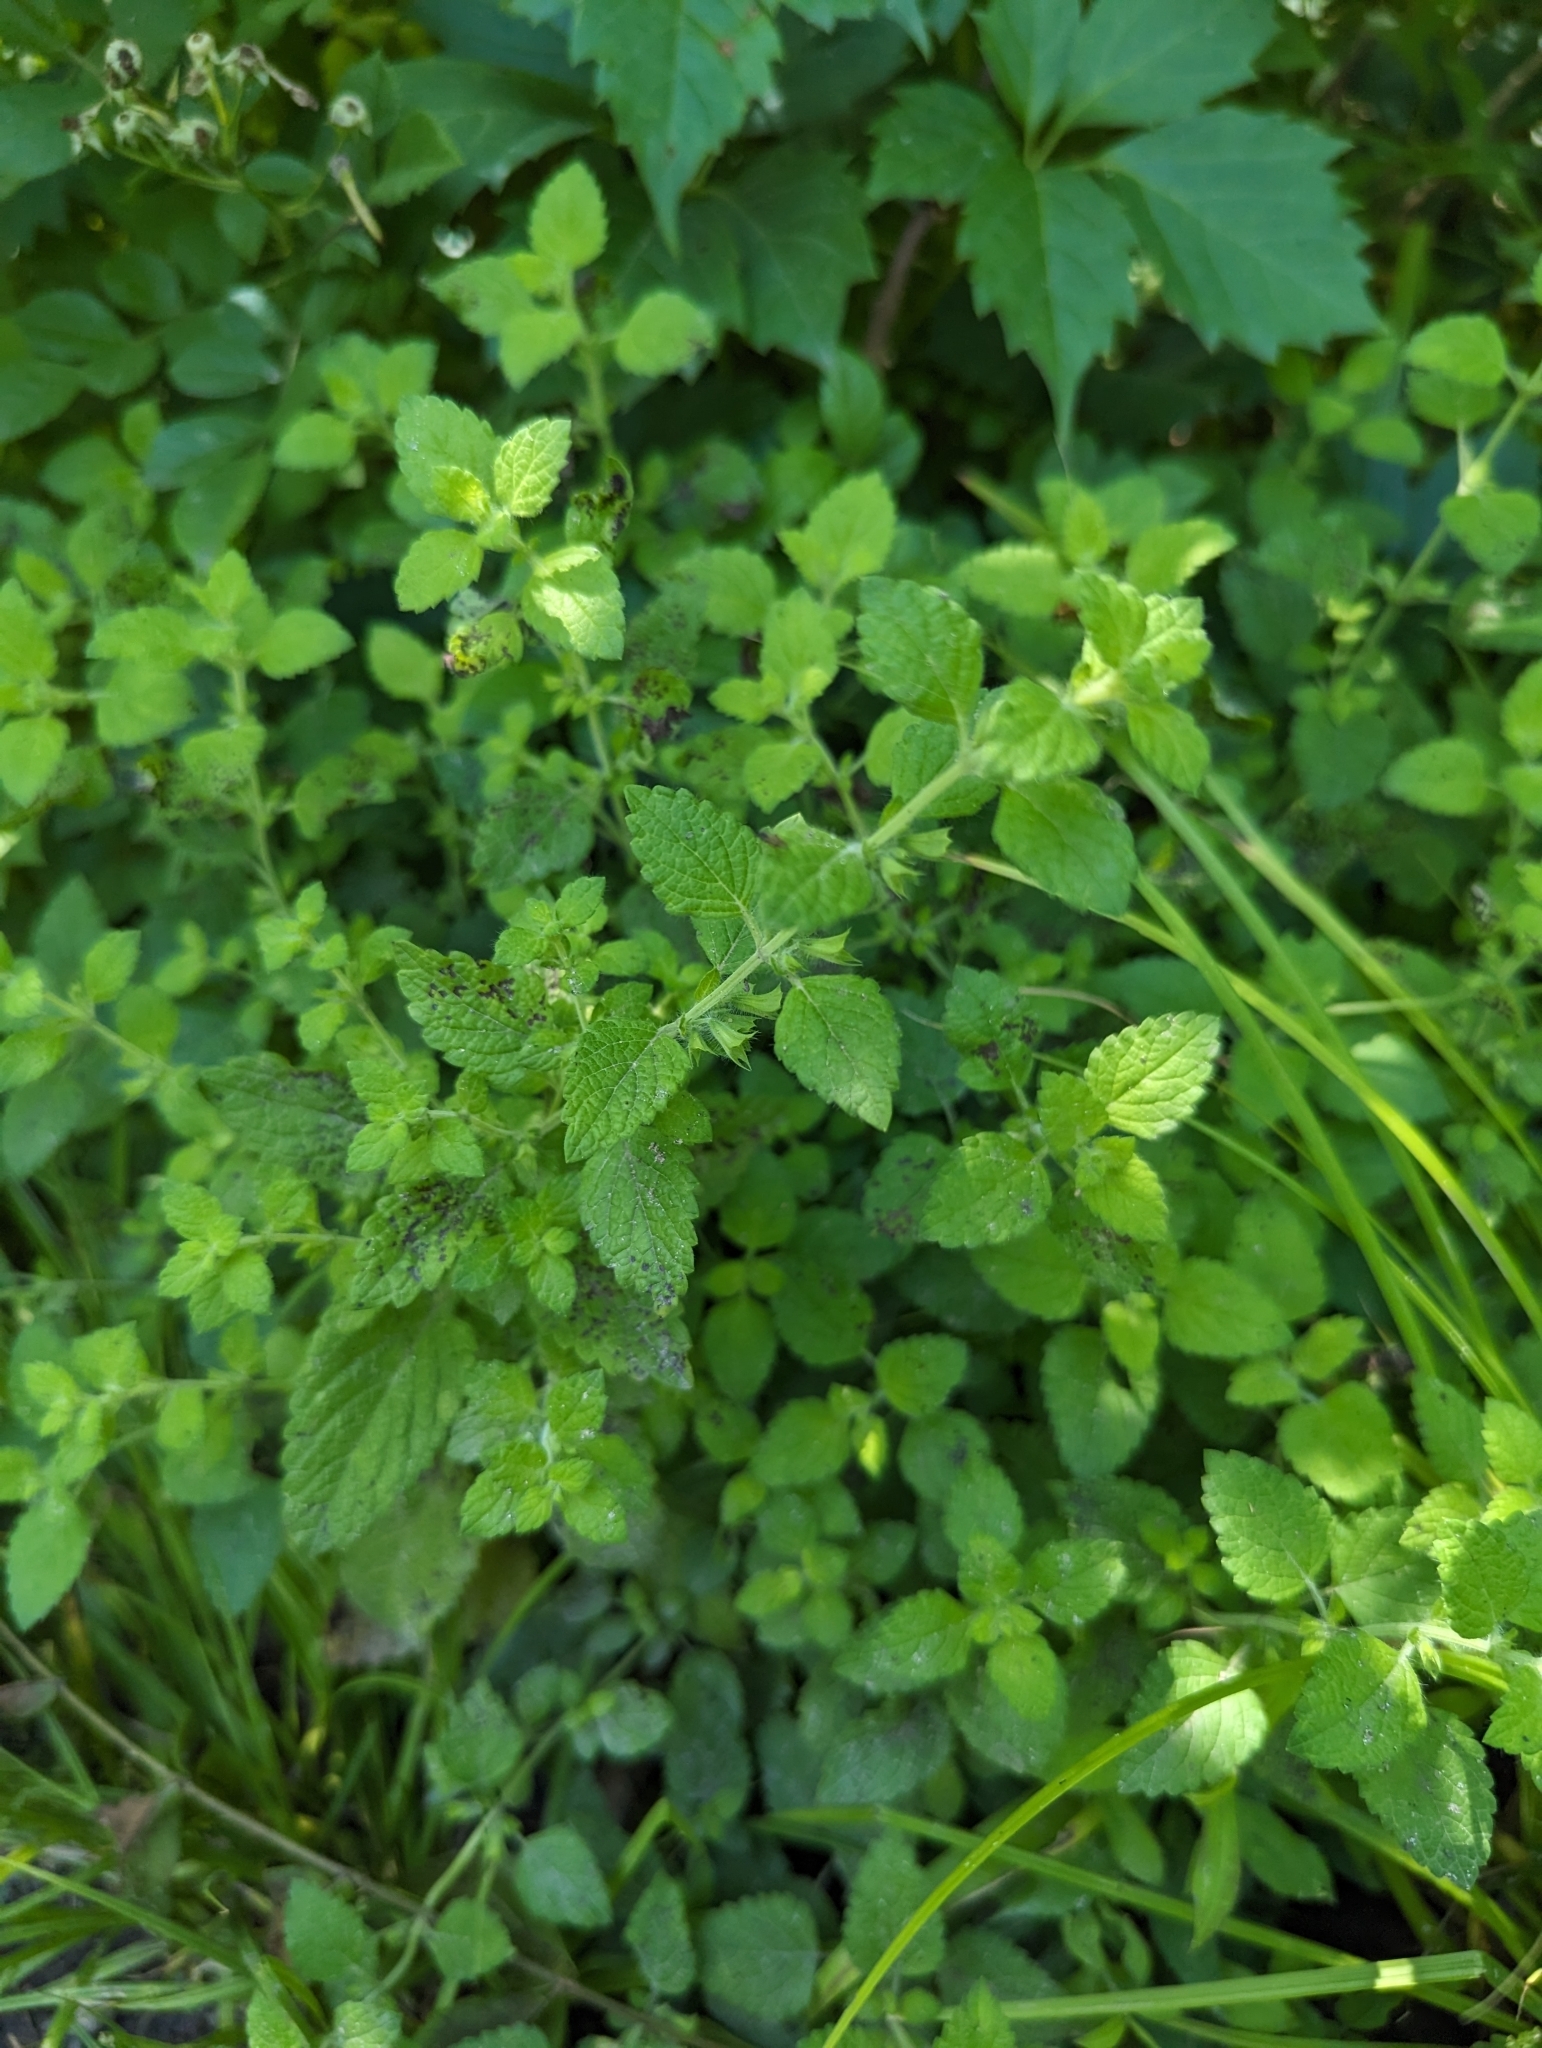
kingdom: Plantae
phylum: Tracheophyta
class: Magnoliopsida
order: Lamiales
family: Lamiaceae
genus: Melissa
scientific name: Melissa officinalis
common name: Balm
